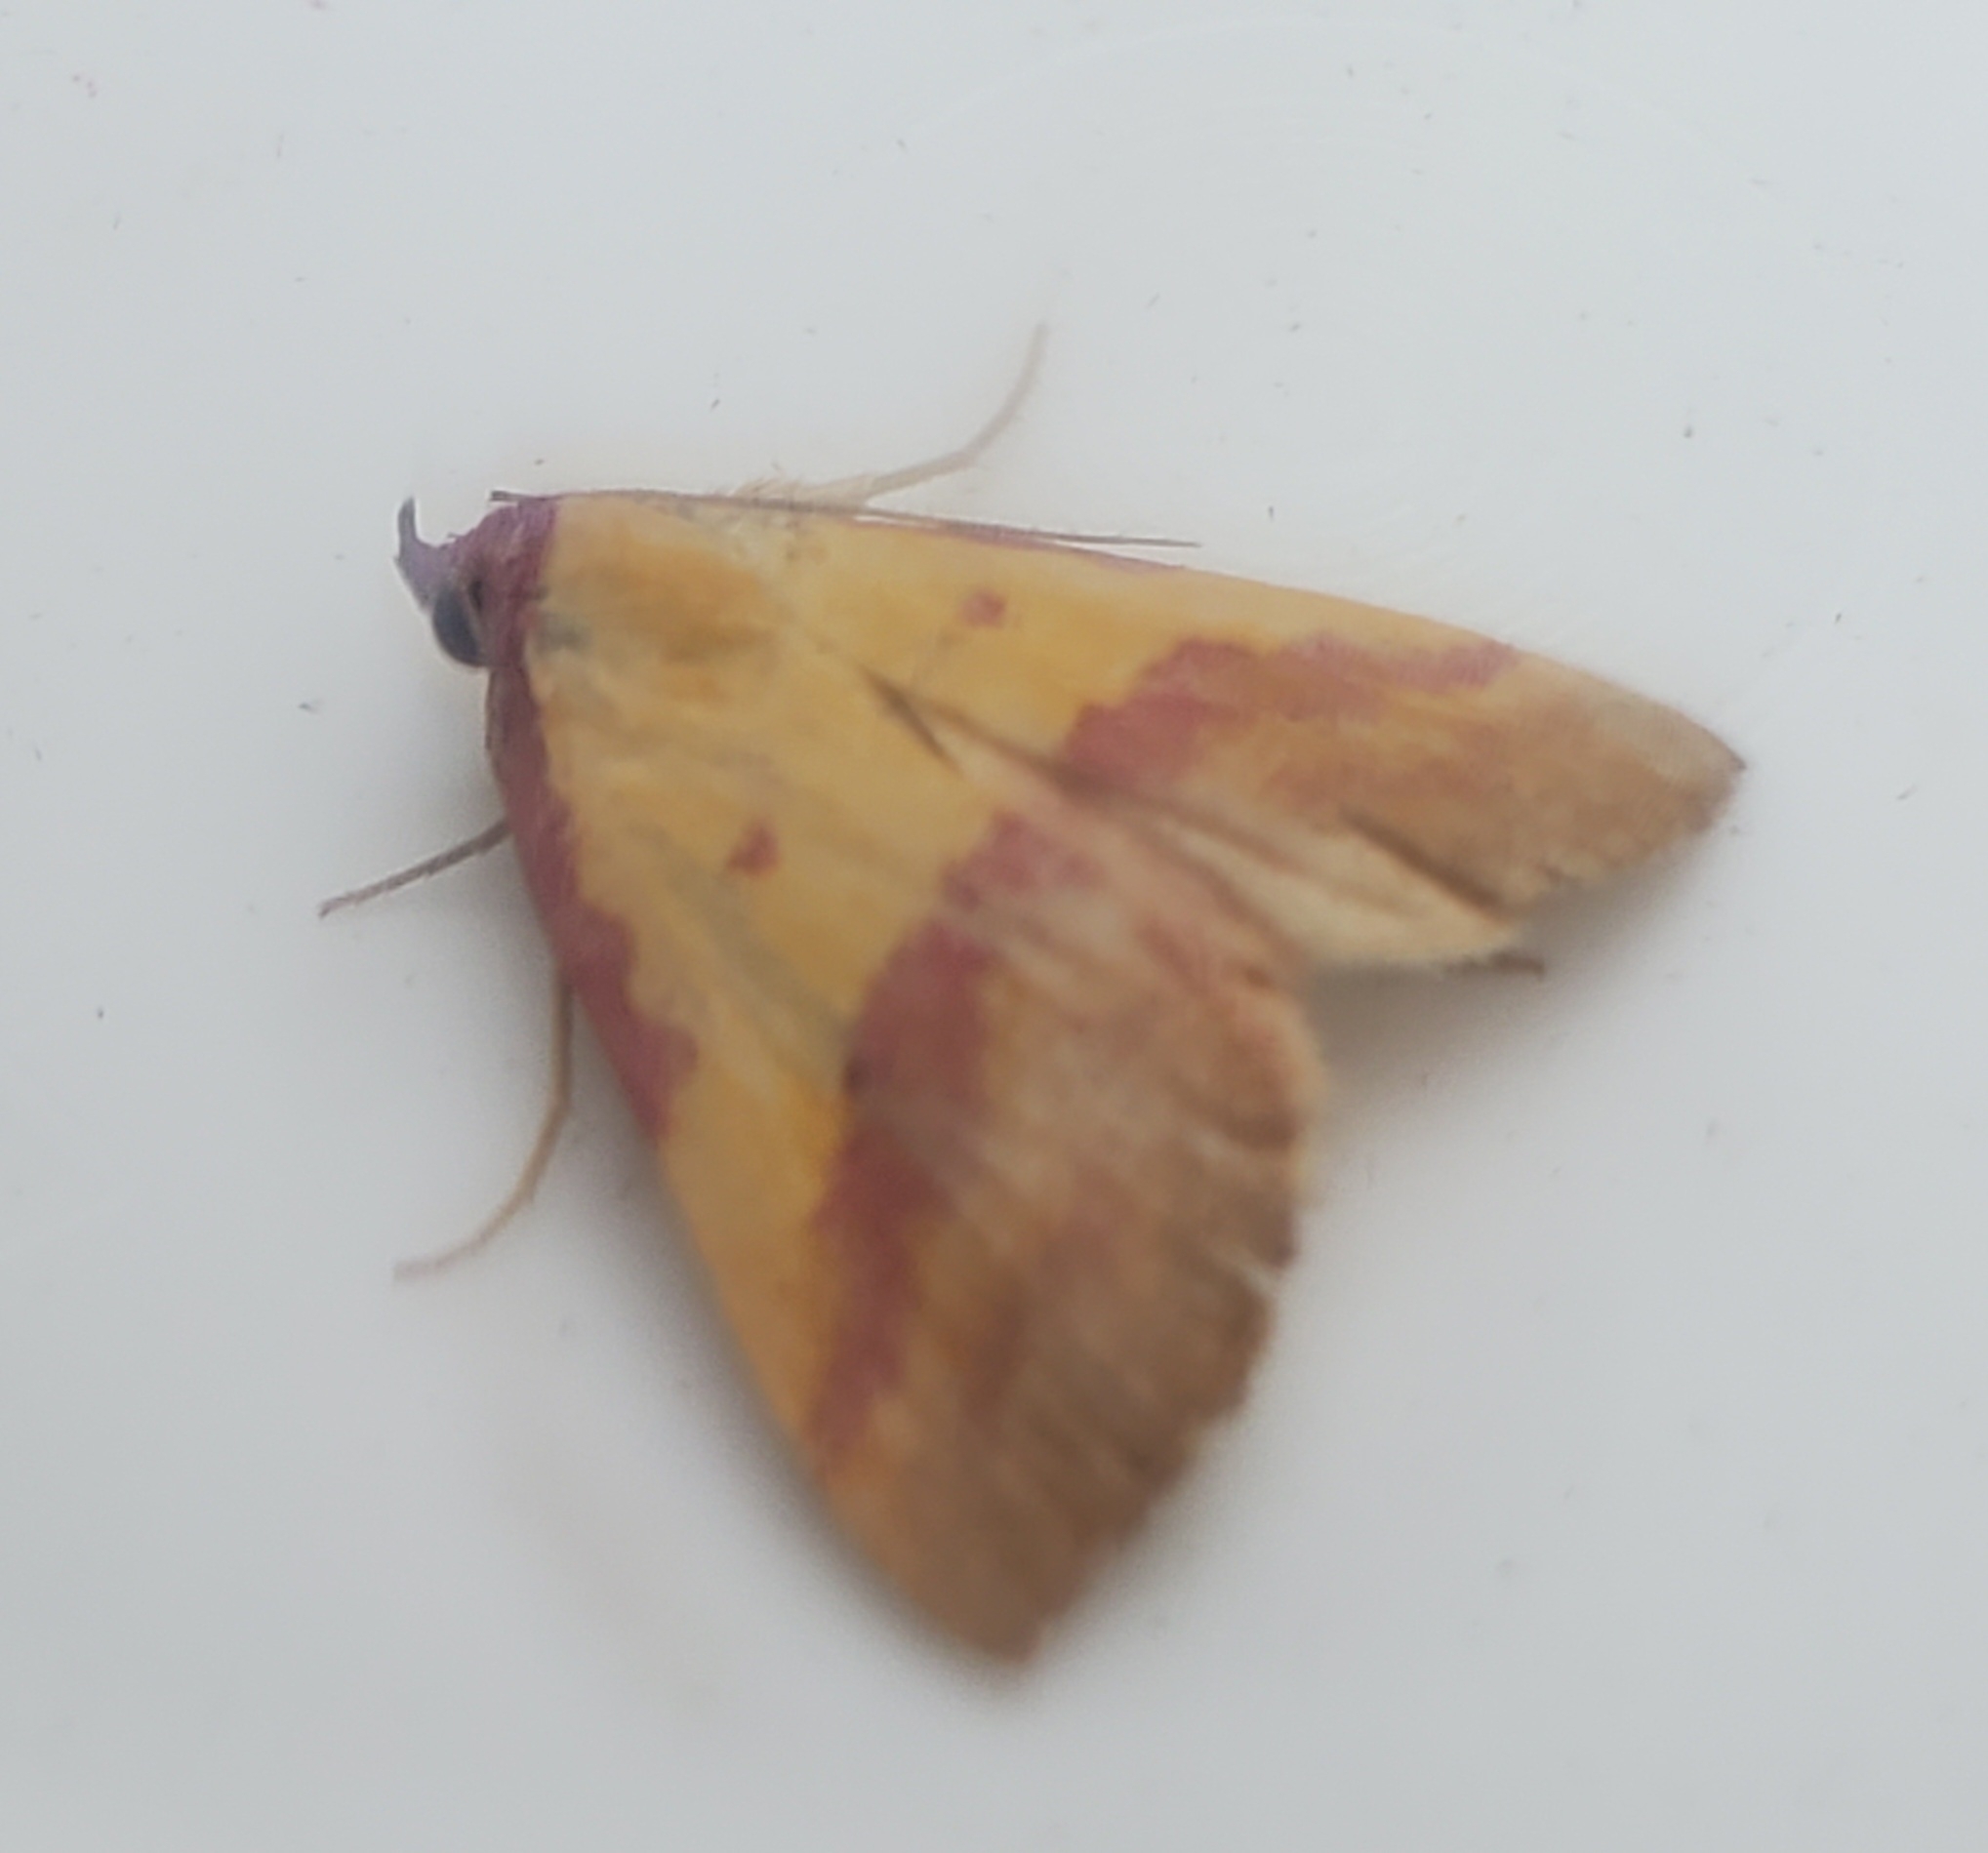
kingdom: Animalia
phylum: Arthropoda
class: Insecta
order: Lepidoptera
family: Erebidae
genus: Phytometra
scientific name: Phytometra rhodarialis
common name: Pink-bordered yellow
